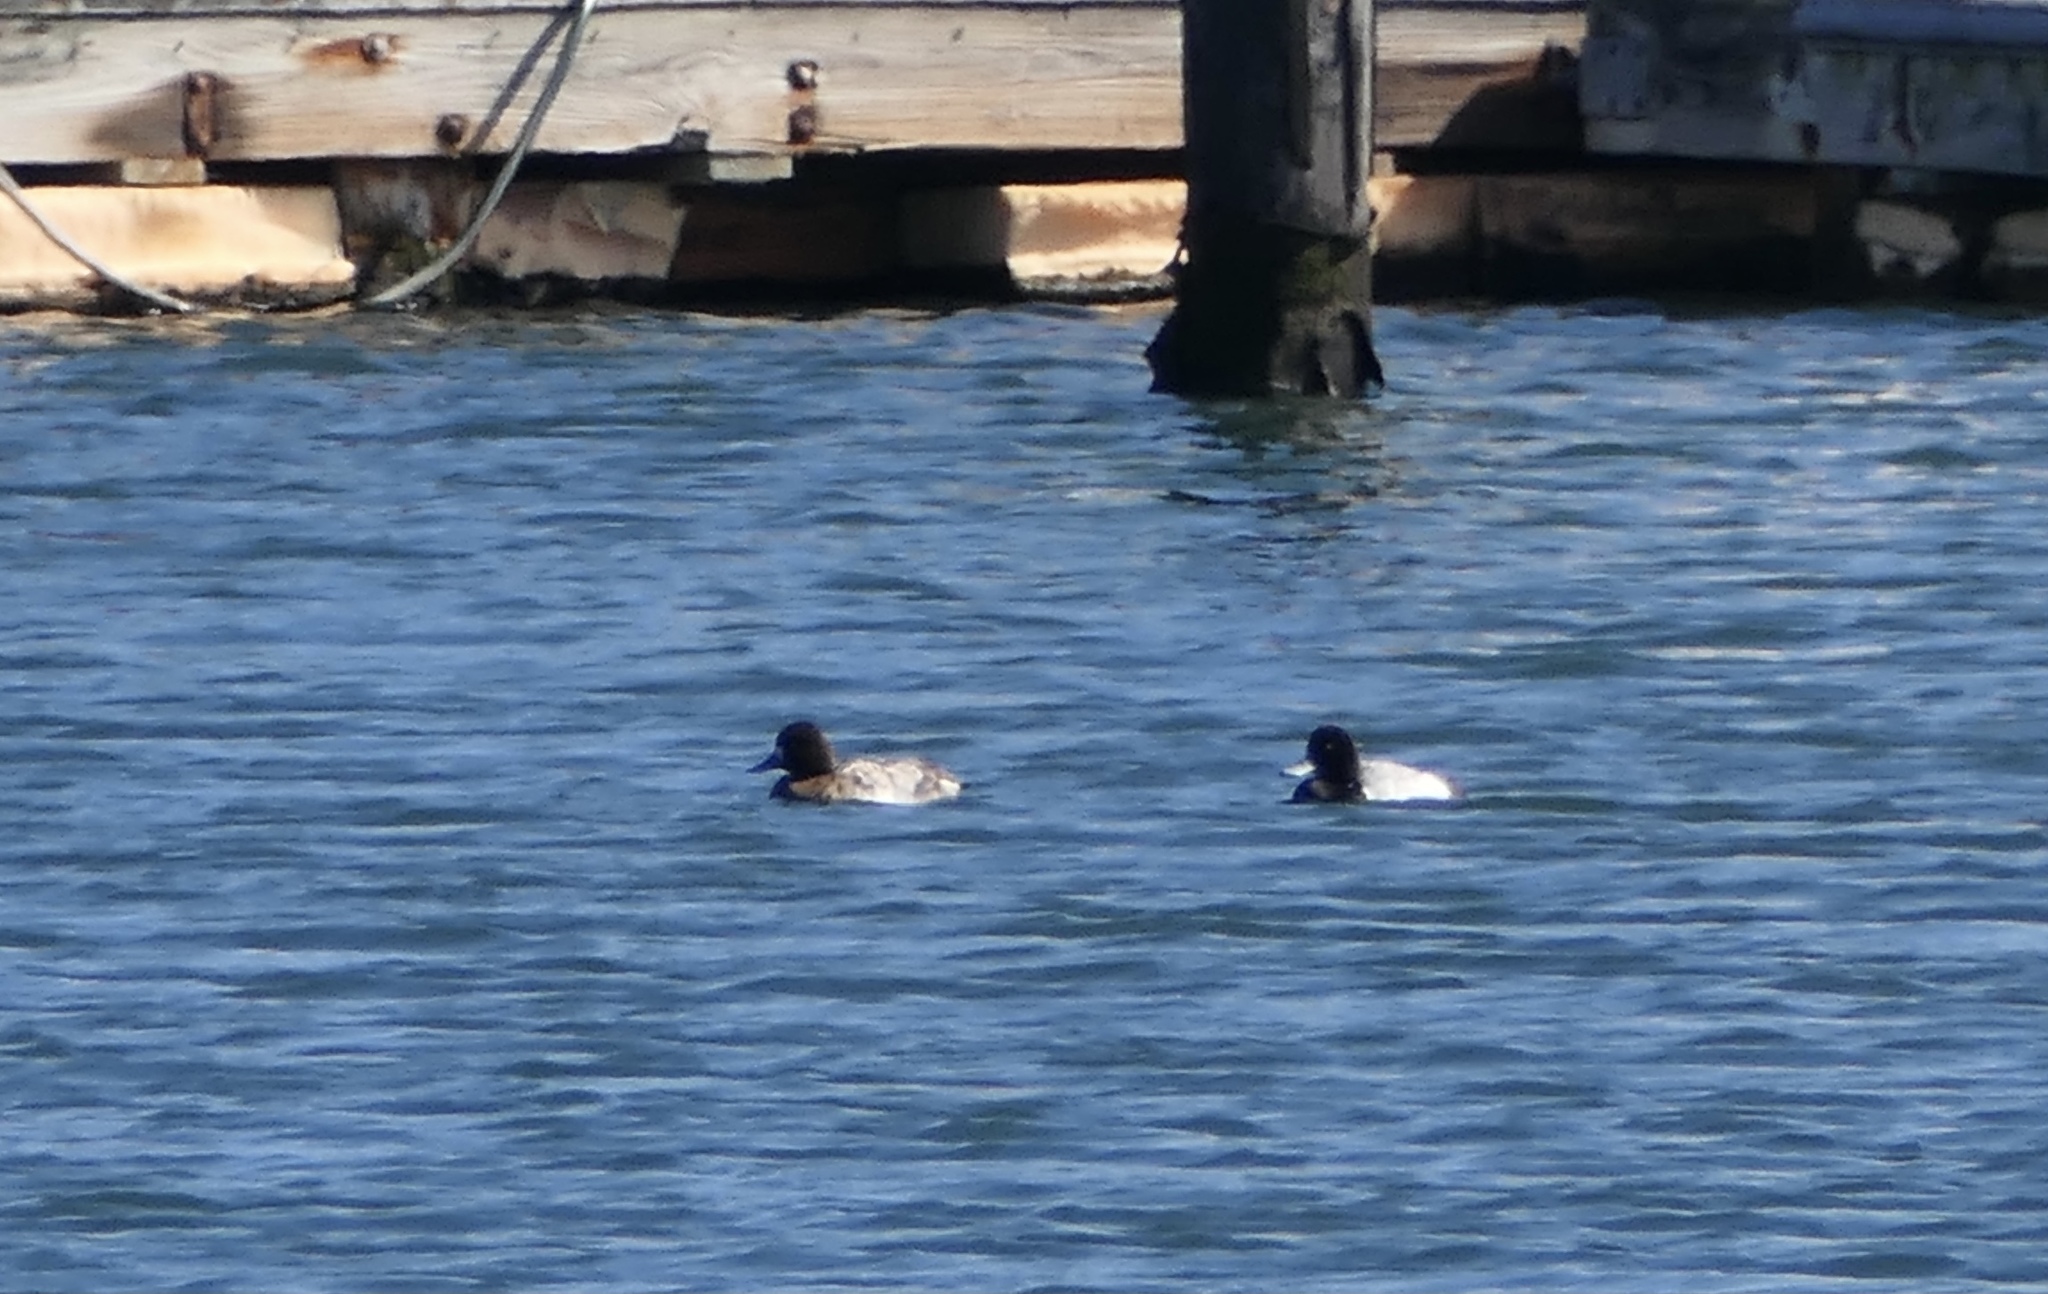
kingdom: Animalia
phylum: Chordata
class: Aves
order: Anseriformes
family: Anatidae
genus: Aythya
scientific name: Aythya marila
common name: Greater scaup
